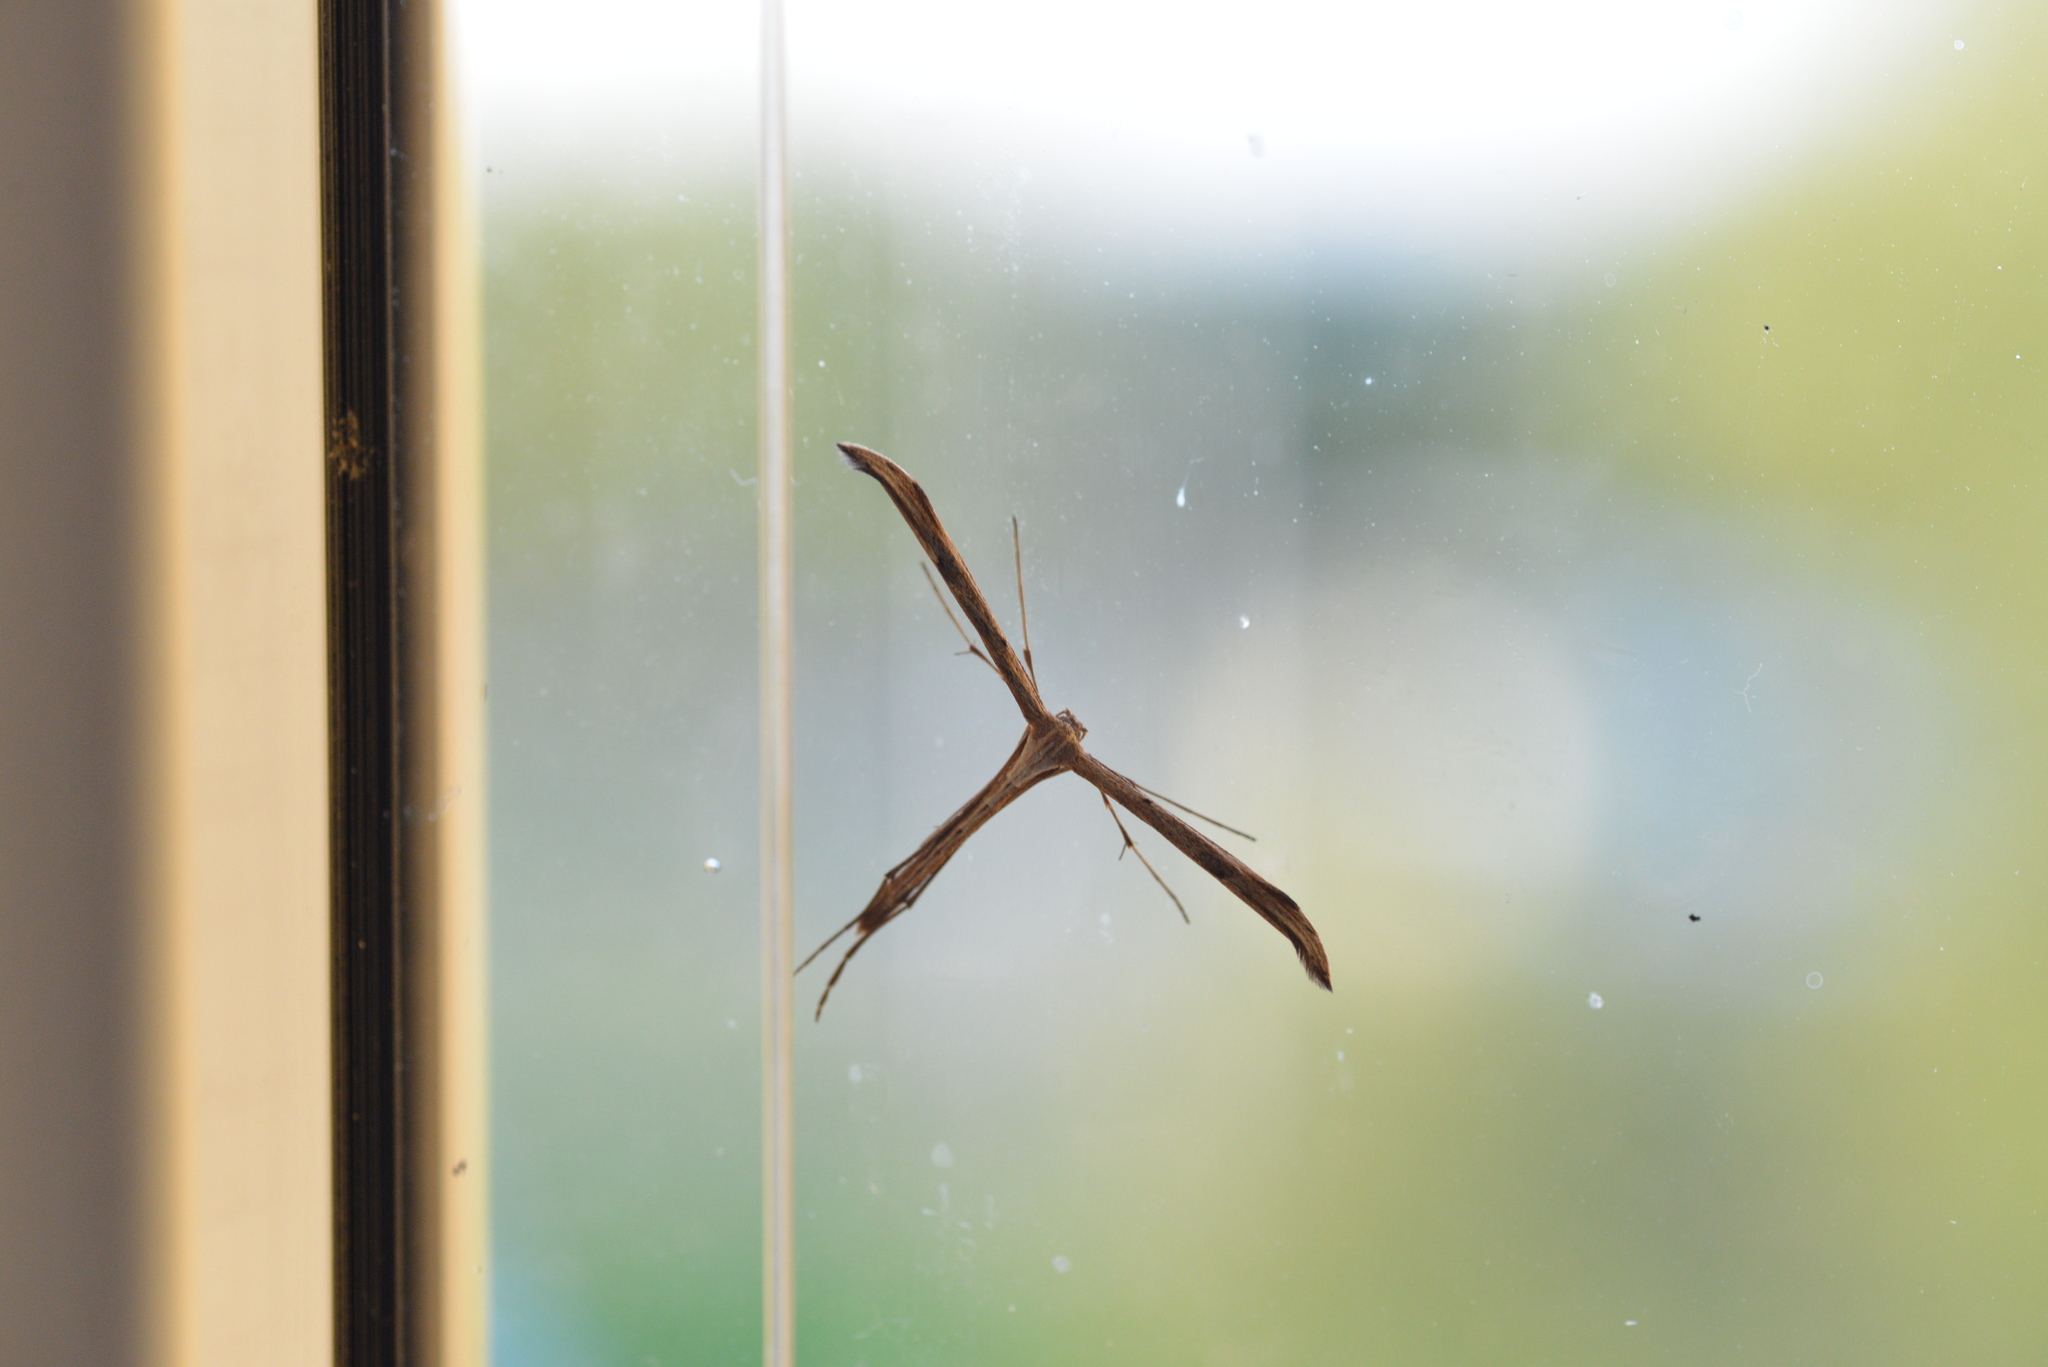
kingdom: Animalia
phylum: Arthropoda
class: Insecta
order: Lepidoptera
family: Pterophoridae
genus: Emmelina
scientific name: Emmelina monodactyla
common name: Common plume
